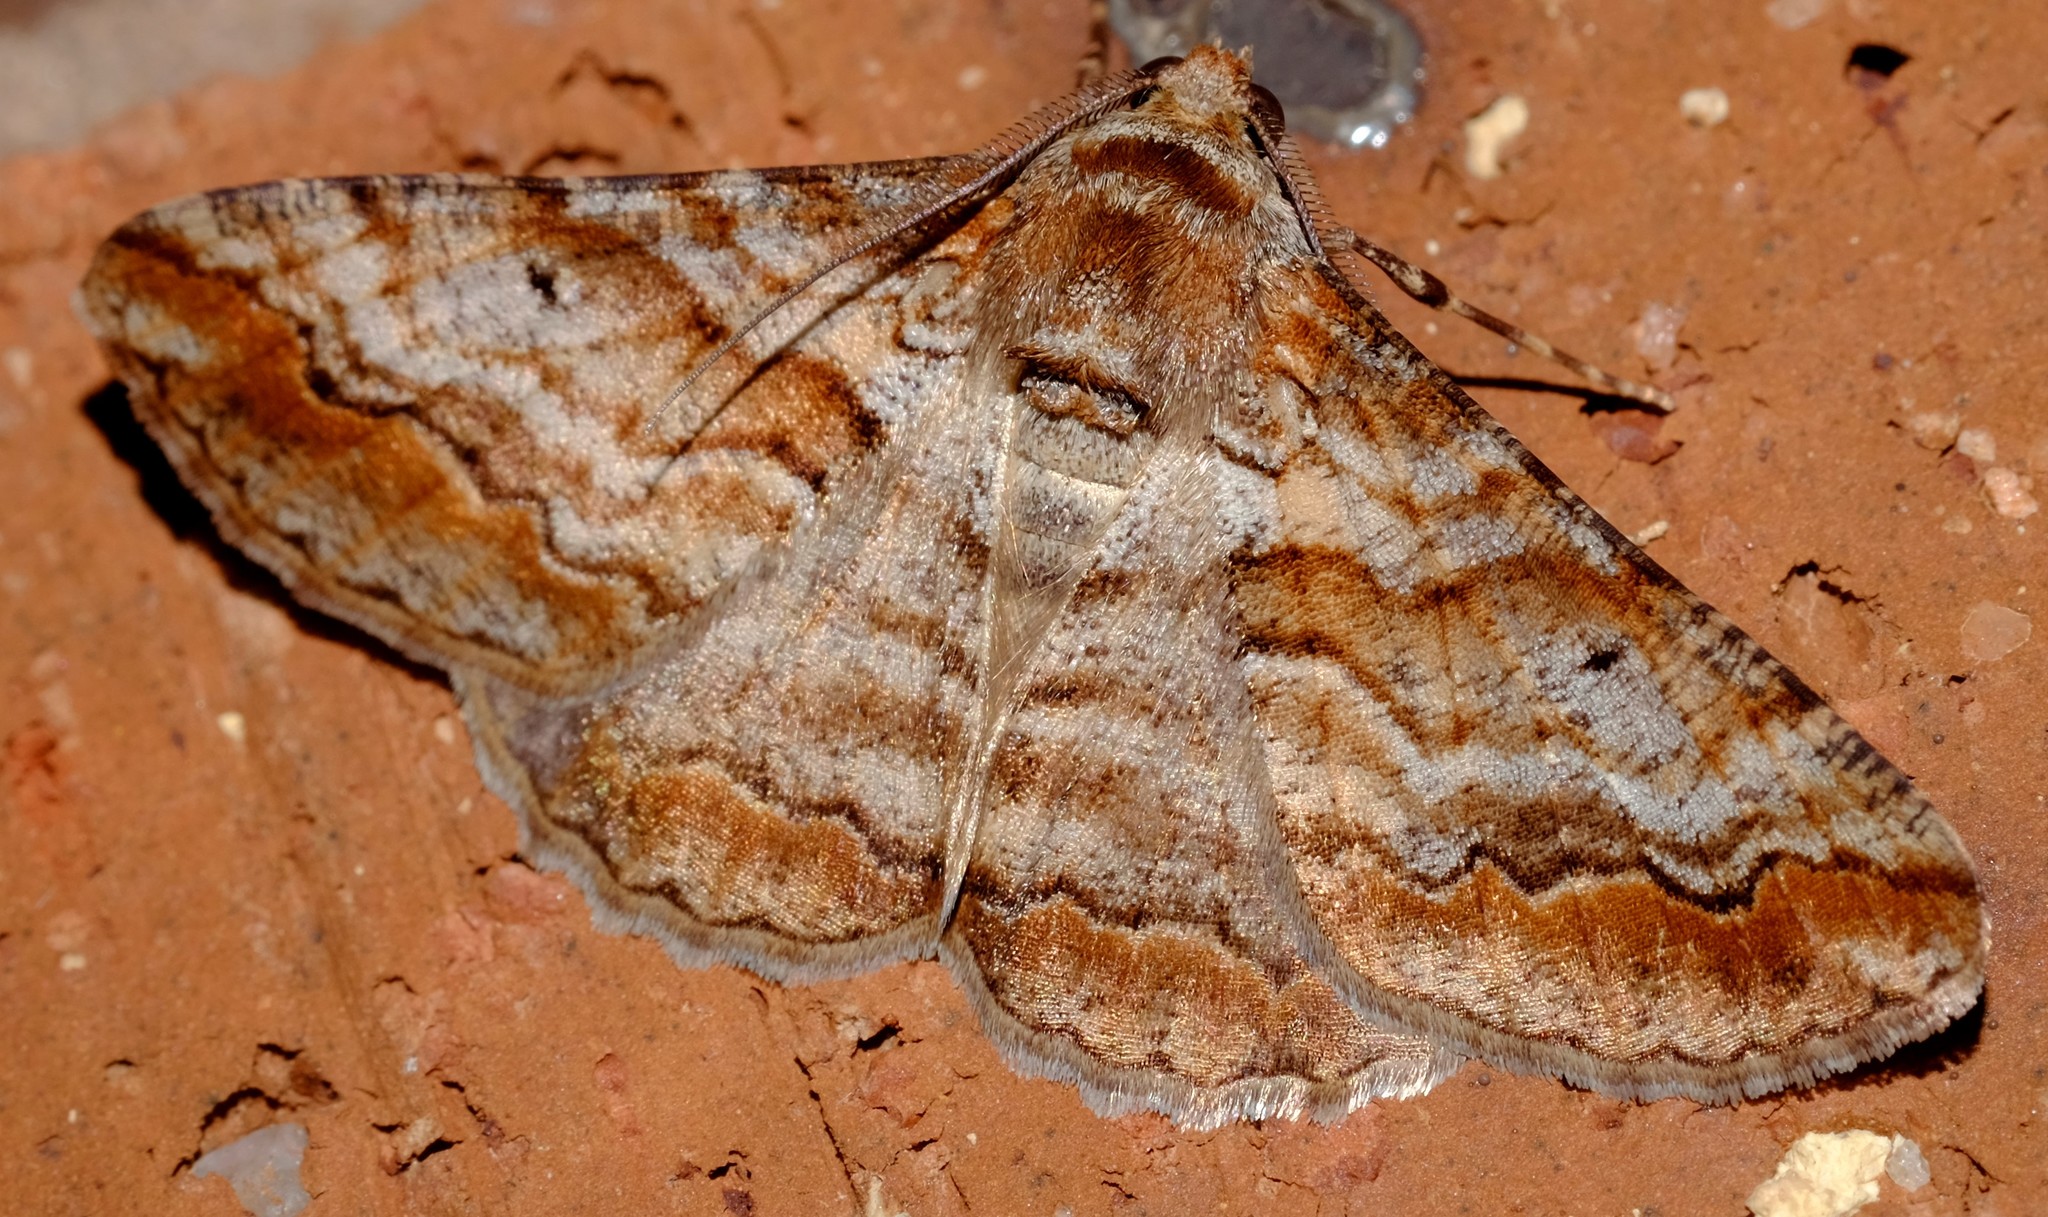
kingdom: Animalia
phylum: Arthropoda
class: Insecta
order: Lepidoptera
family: Geometridae
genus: Gastrinodes
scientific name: Gastrinodes bitaeniaria
